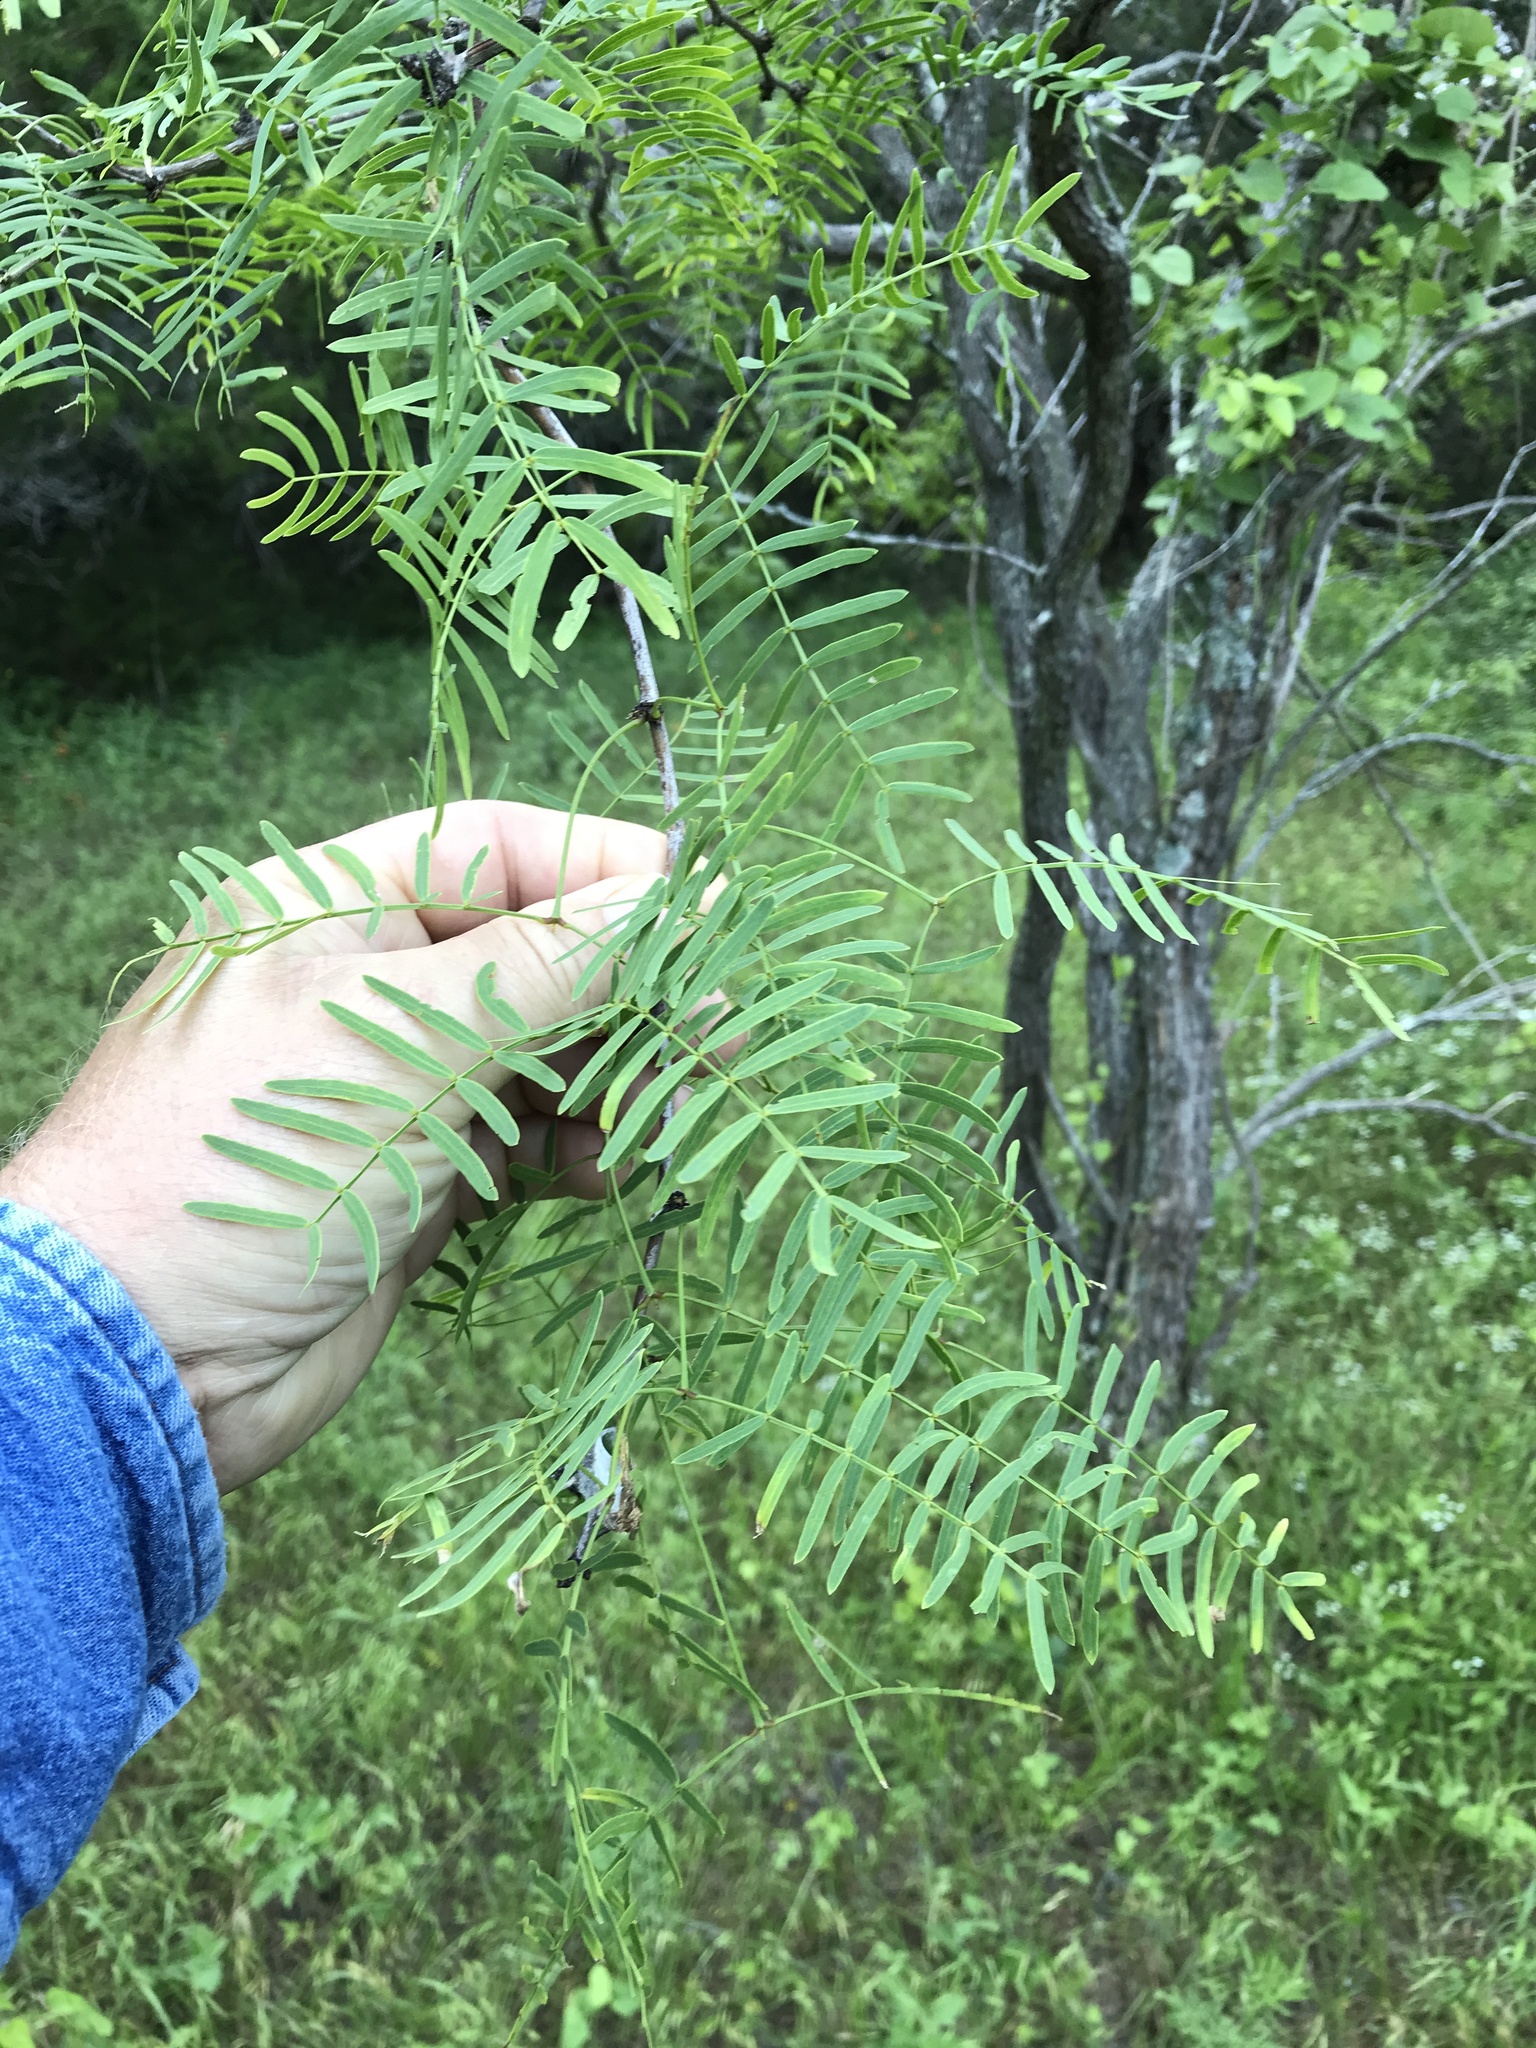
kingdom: Plantae
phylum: Tracheophyta
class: Magnoliopsida
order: Fabales
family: Fabaceae
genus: Prosopis
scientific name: Prosopis glandulosa
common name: Honey mesquite
